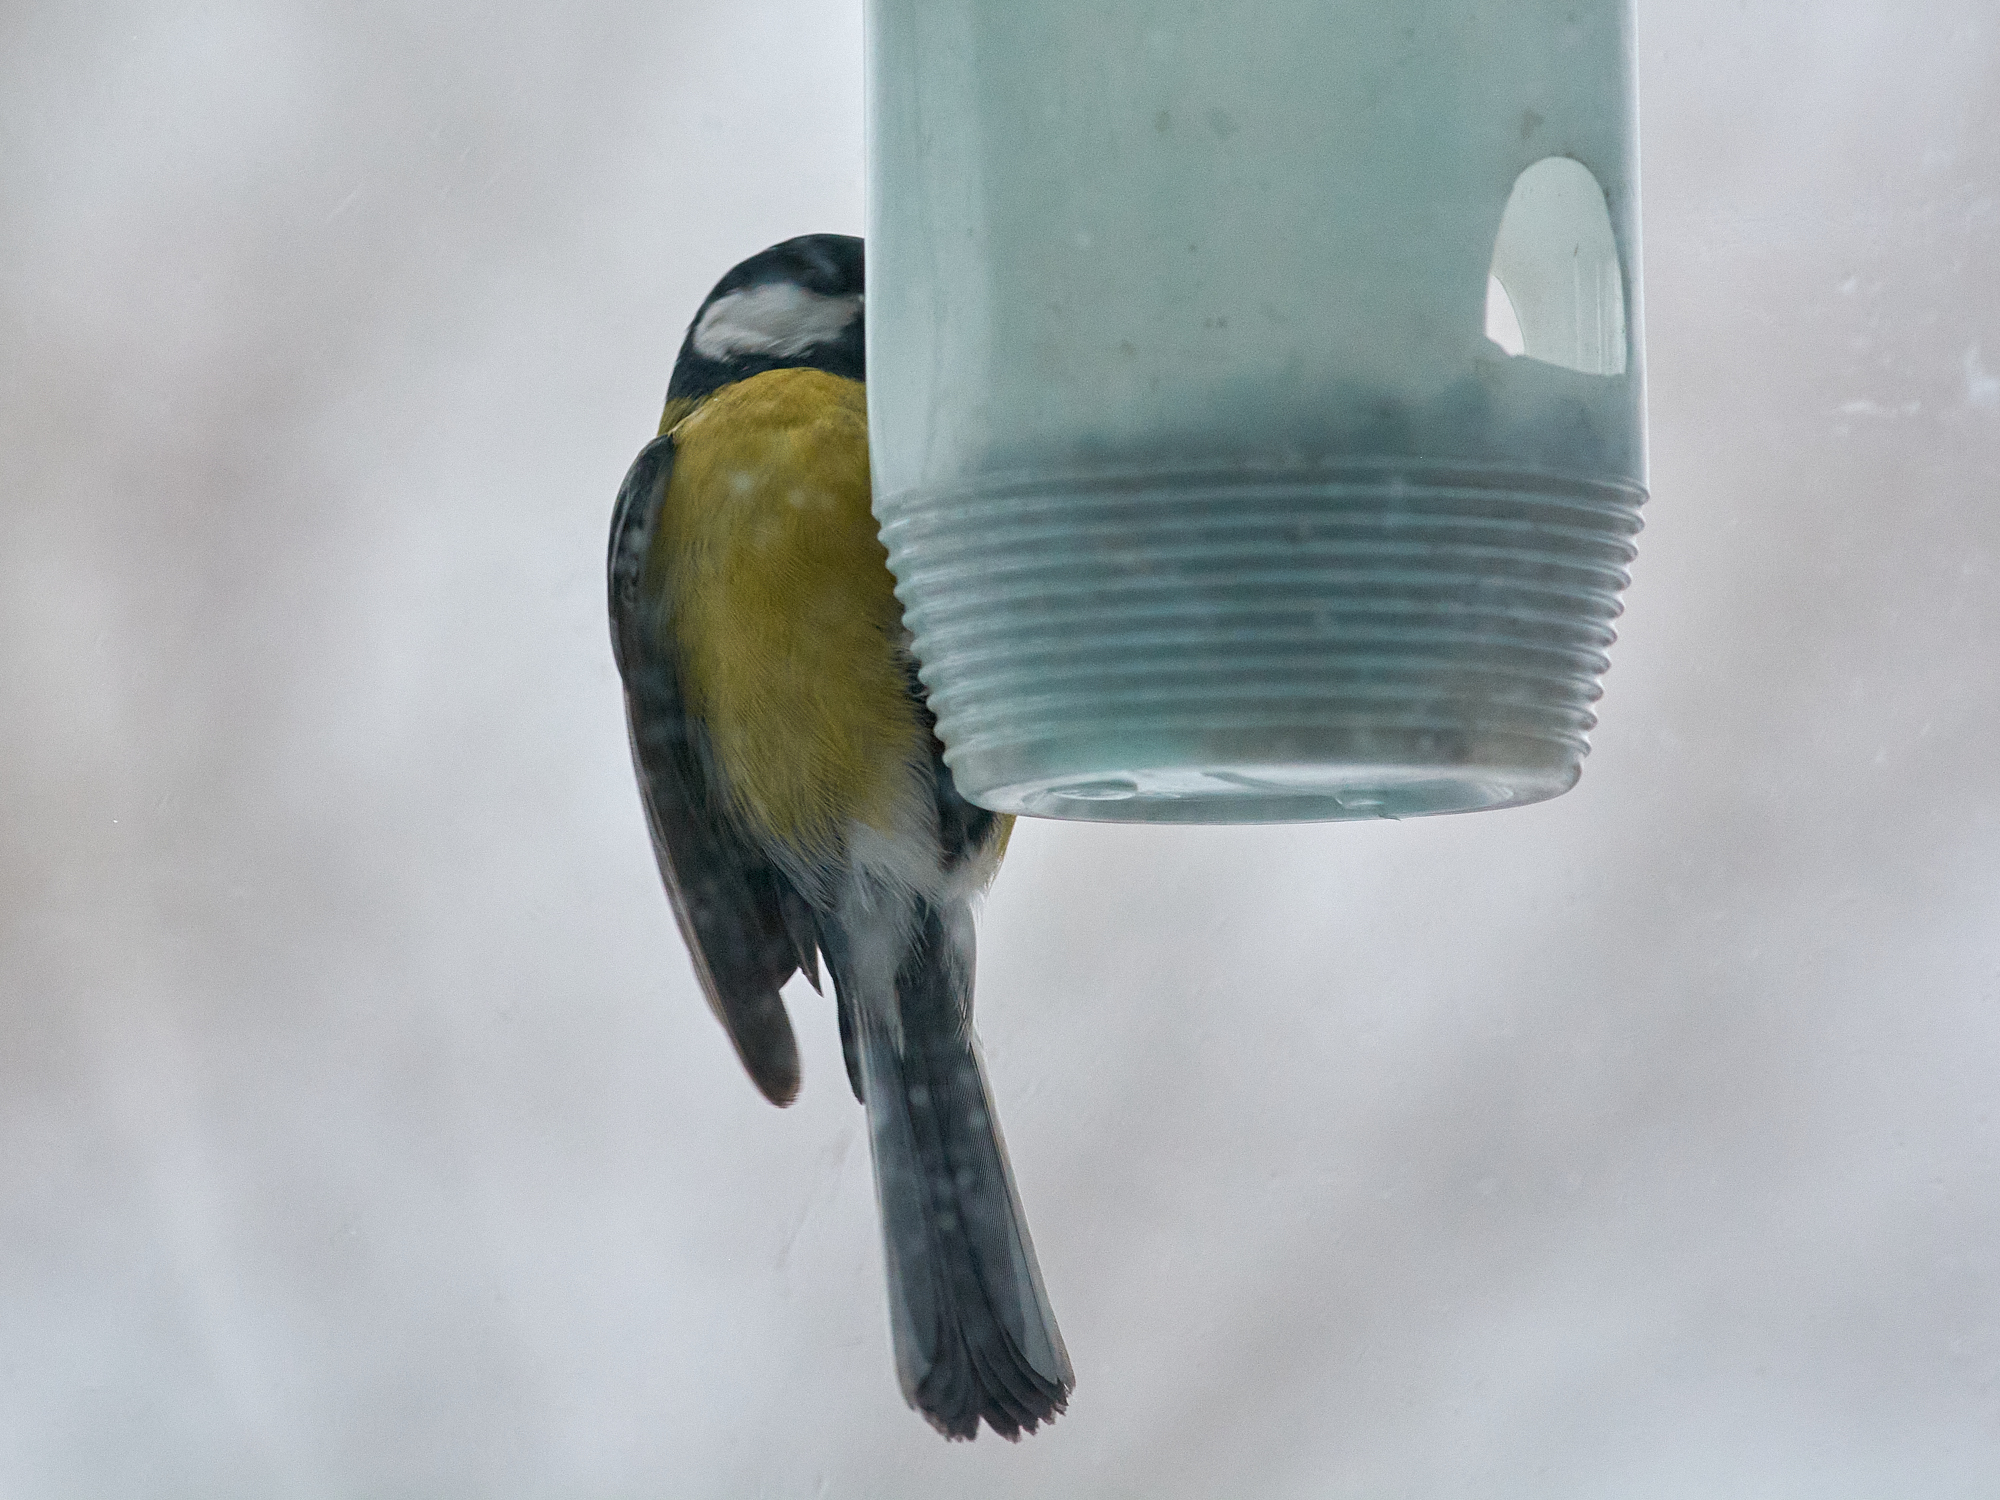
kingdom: Animalia
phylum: Chordata
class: Aves
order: Passeriformes
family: Paridae
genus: Parus
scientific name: Parus major
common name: Great tit
